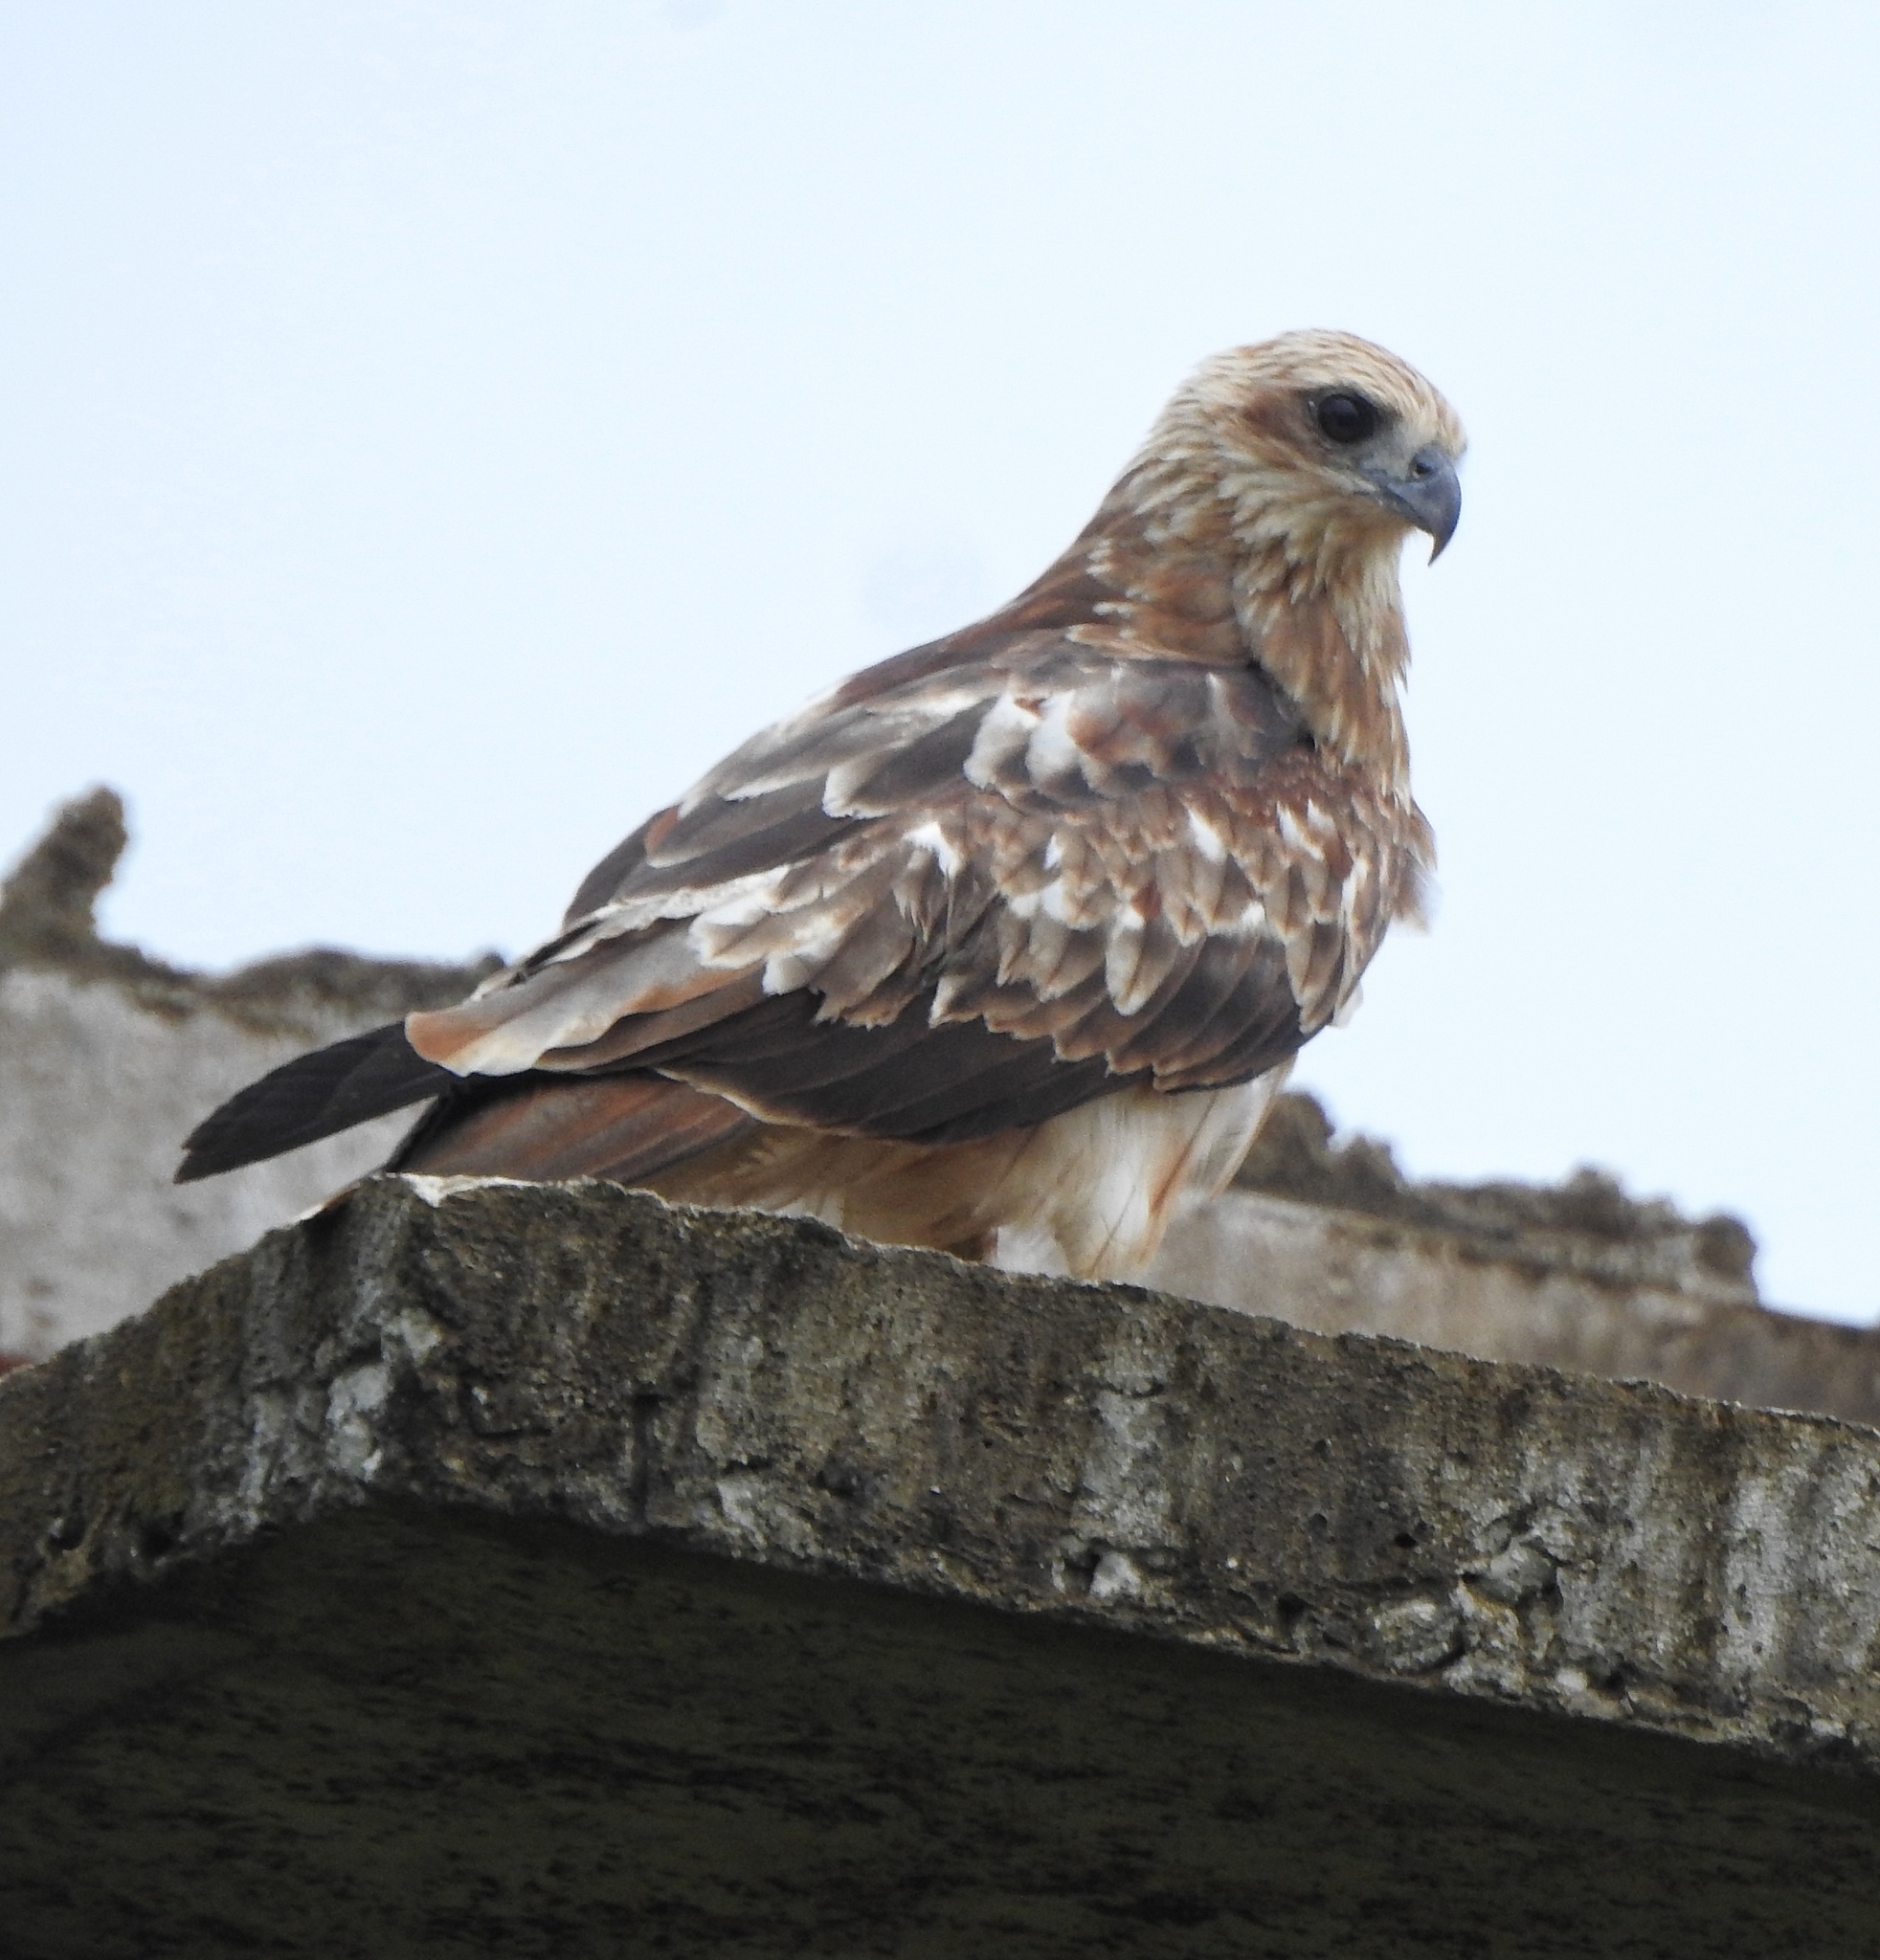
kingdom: Animalia
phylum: Chordata
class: Aves
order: Accipitriformes
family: Accipitridae
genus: Haliastur
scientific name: Haliastur indus
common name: Brahminy kite
